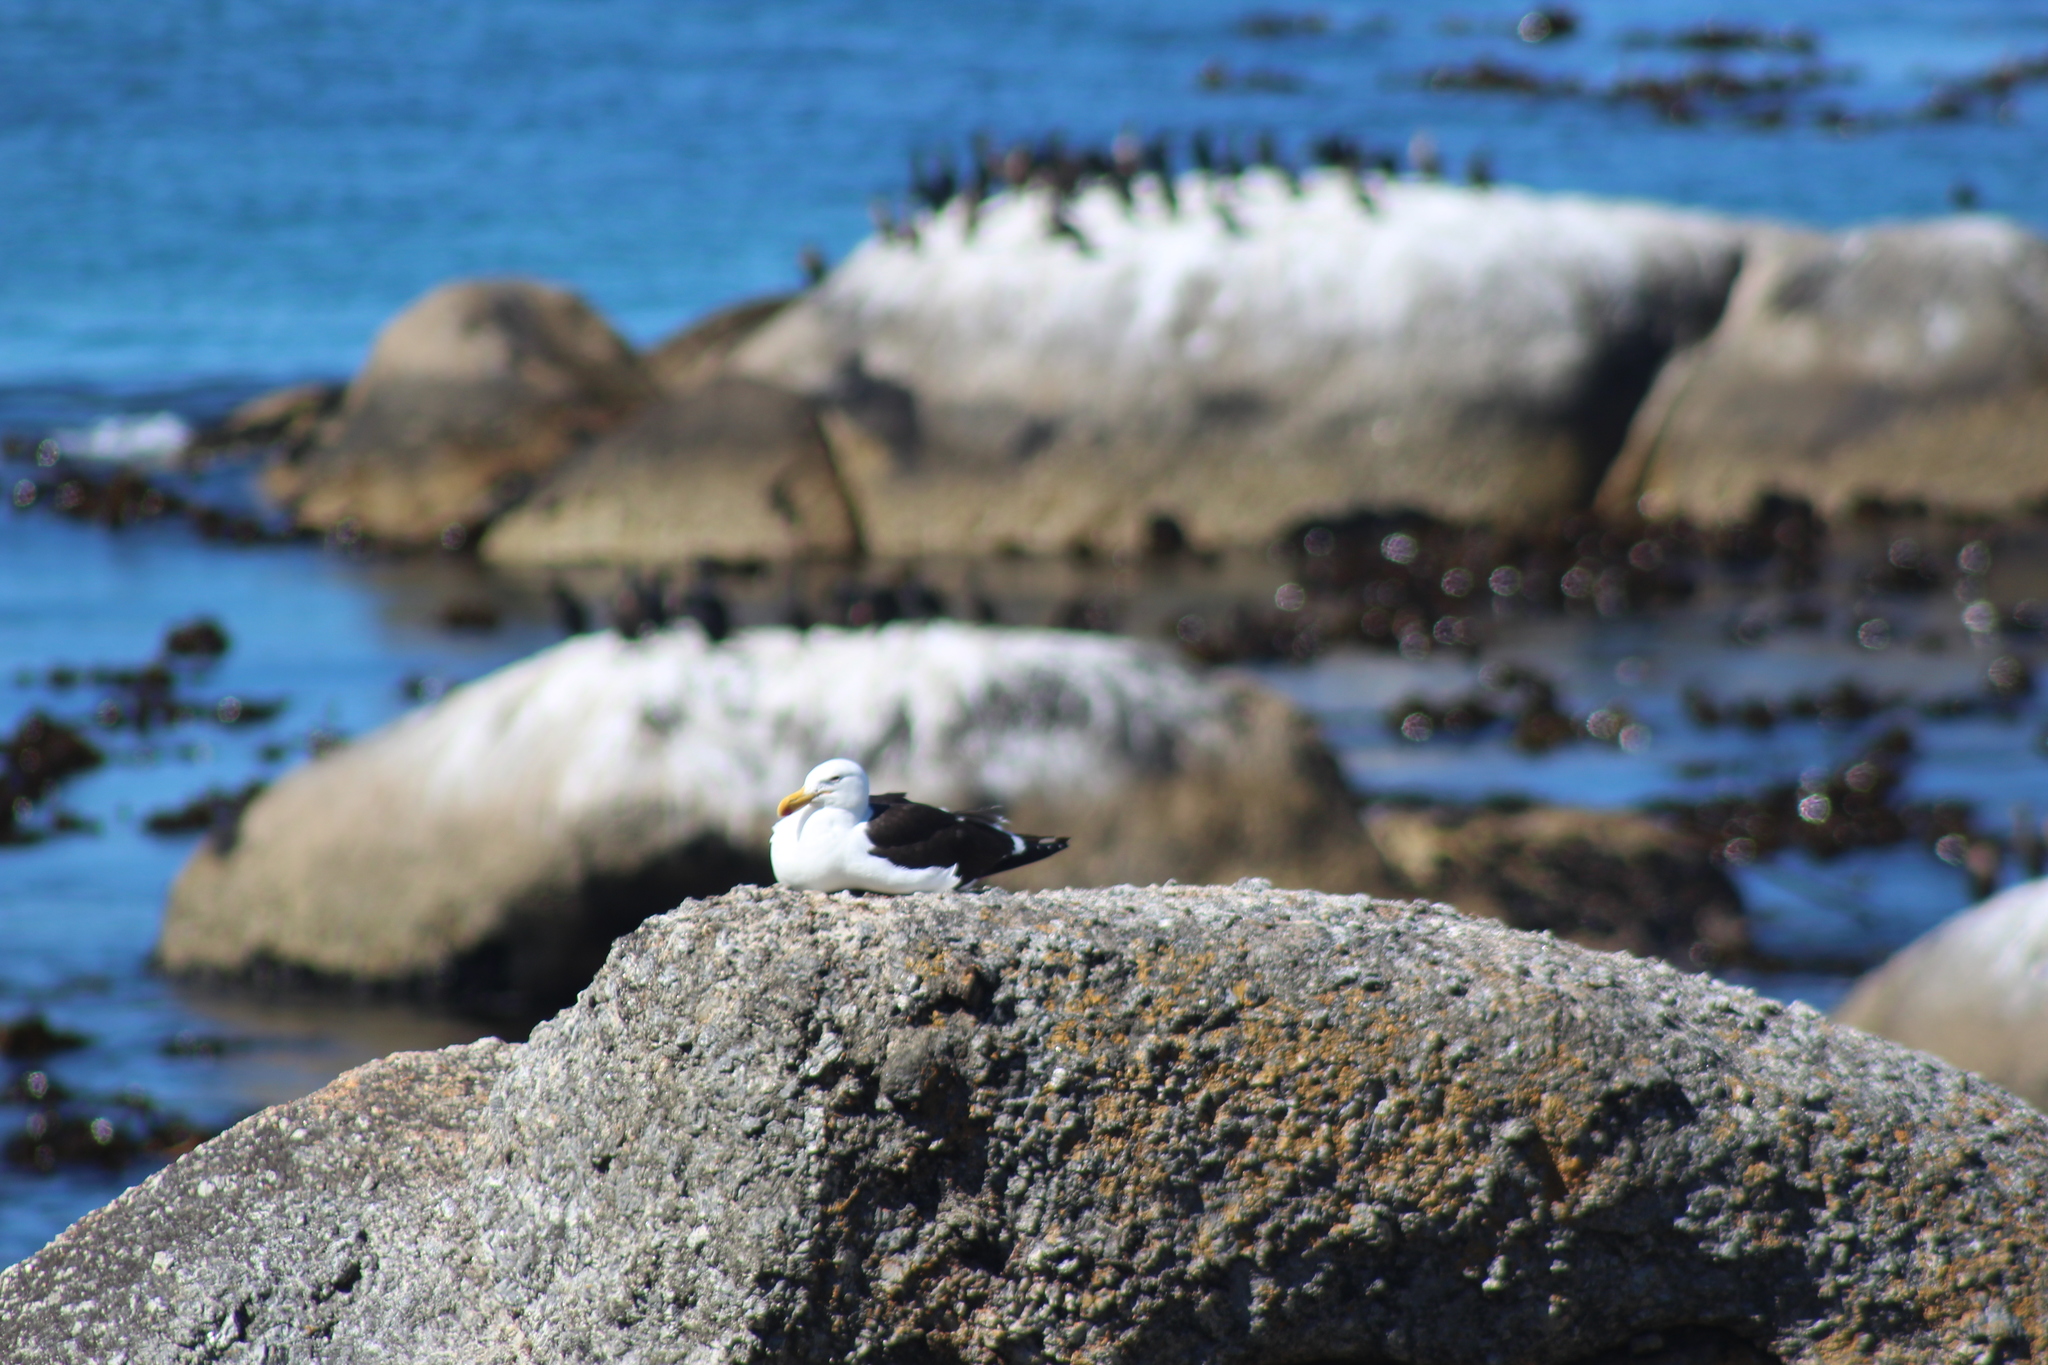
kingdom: Animalia
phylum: Chordata
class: Aves
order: Charadriiformes
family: Laridae
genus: Larus
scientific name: Larus dominicanus
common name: Kelp gull
